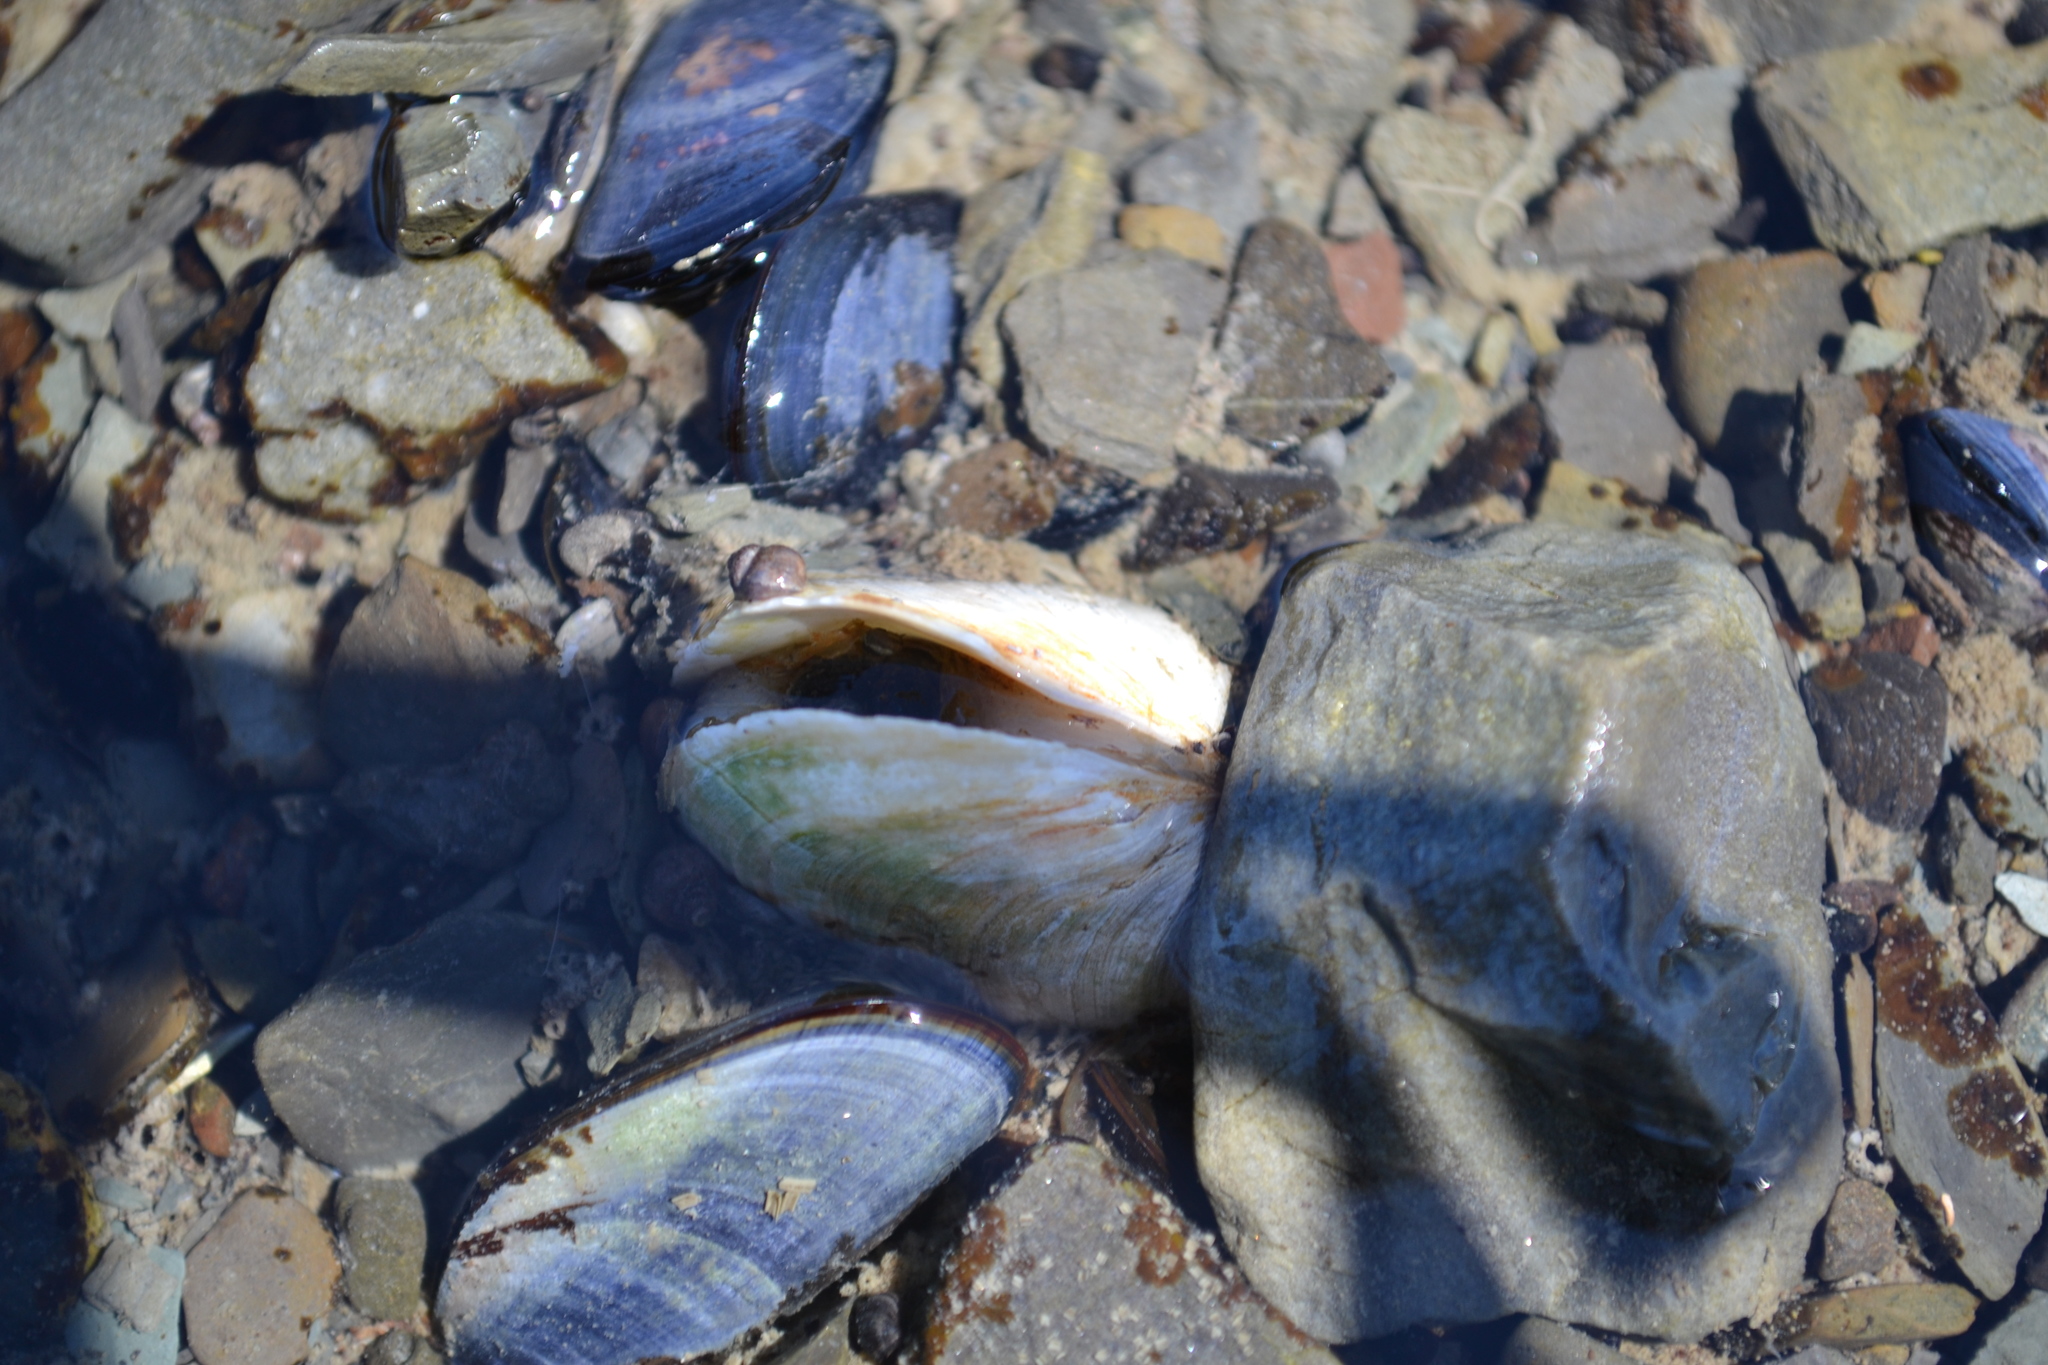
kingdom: Animalia
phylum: Mollusca
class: Bivalvia
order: Myida
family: Myidae
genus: Mya
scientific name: Mya arenaria
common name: Soft-shelled clam
